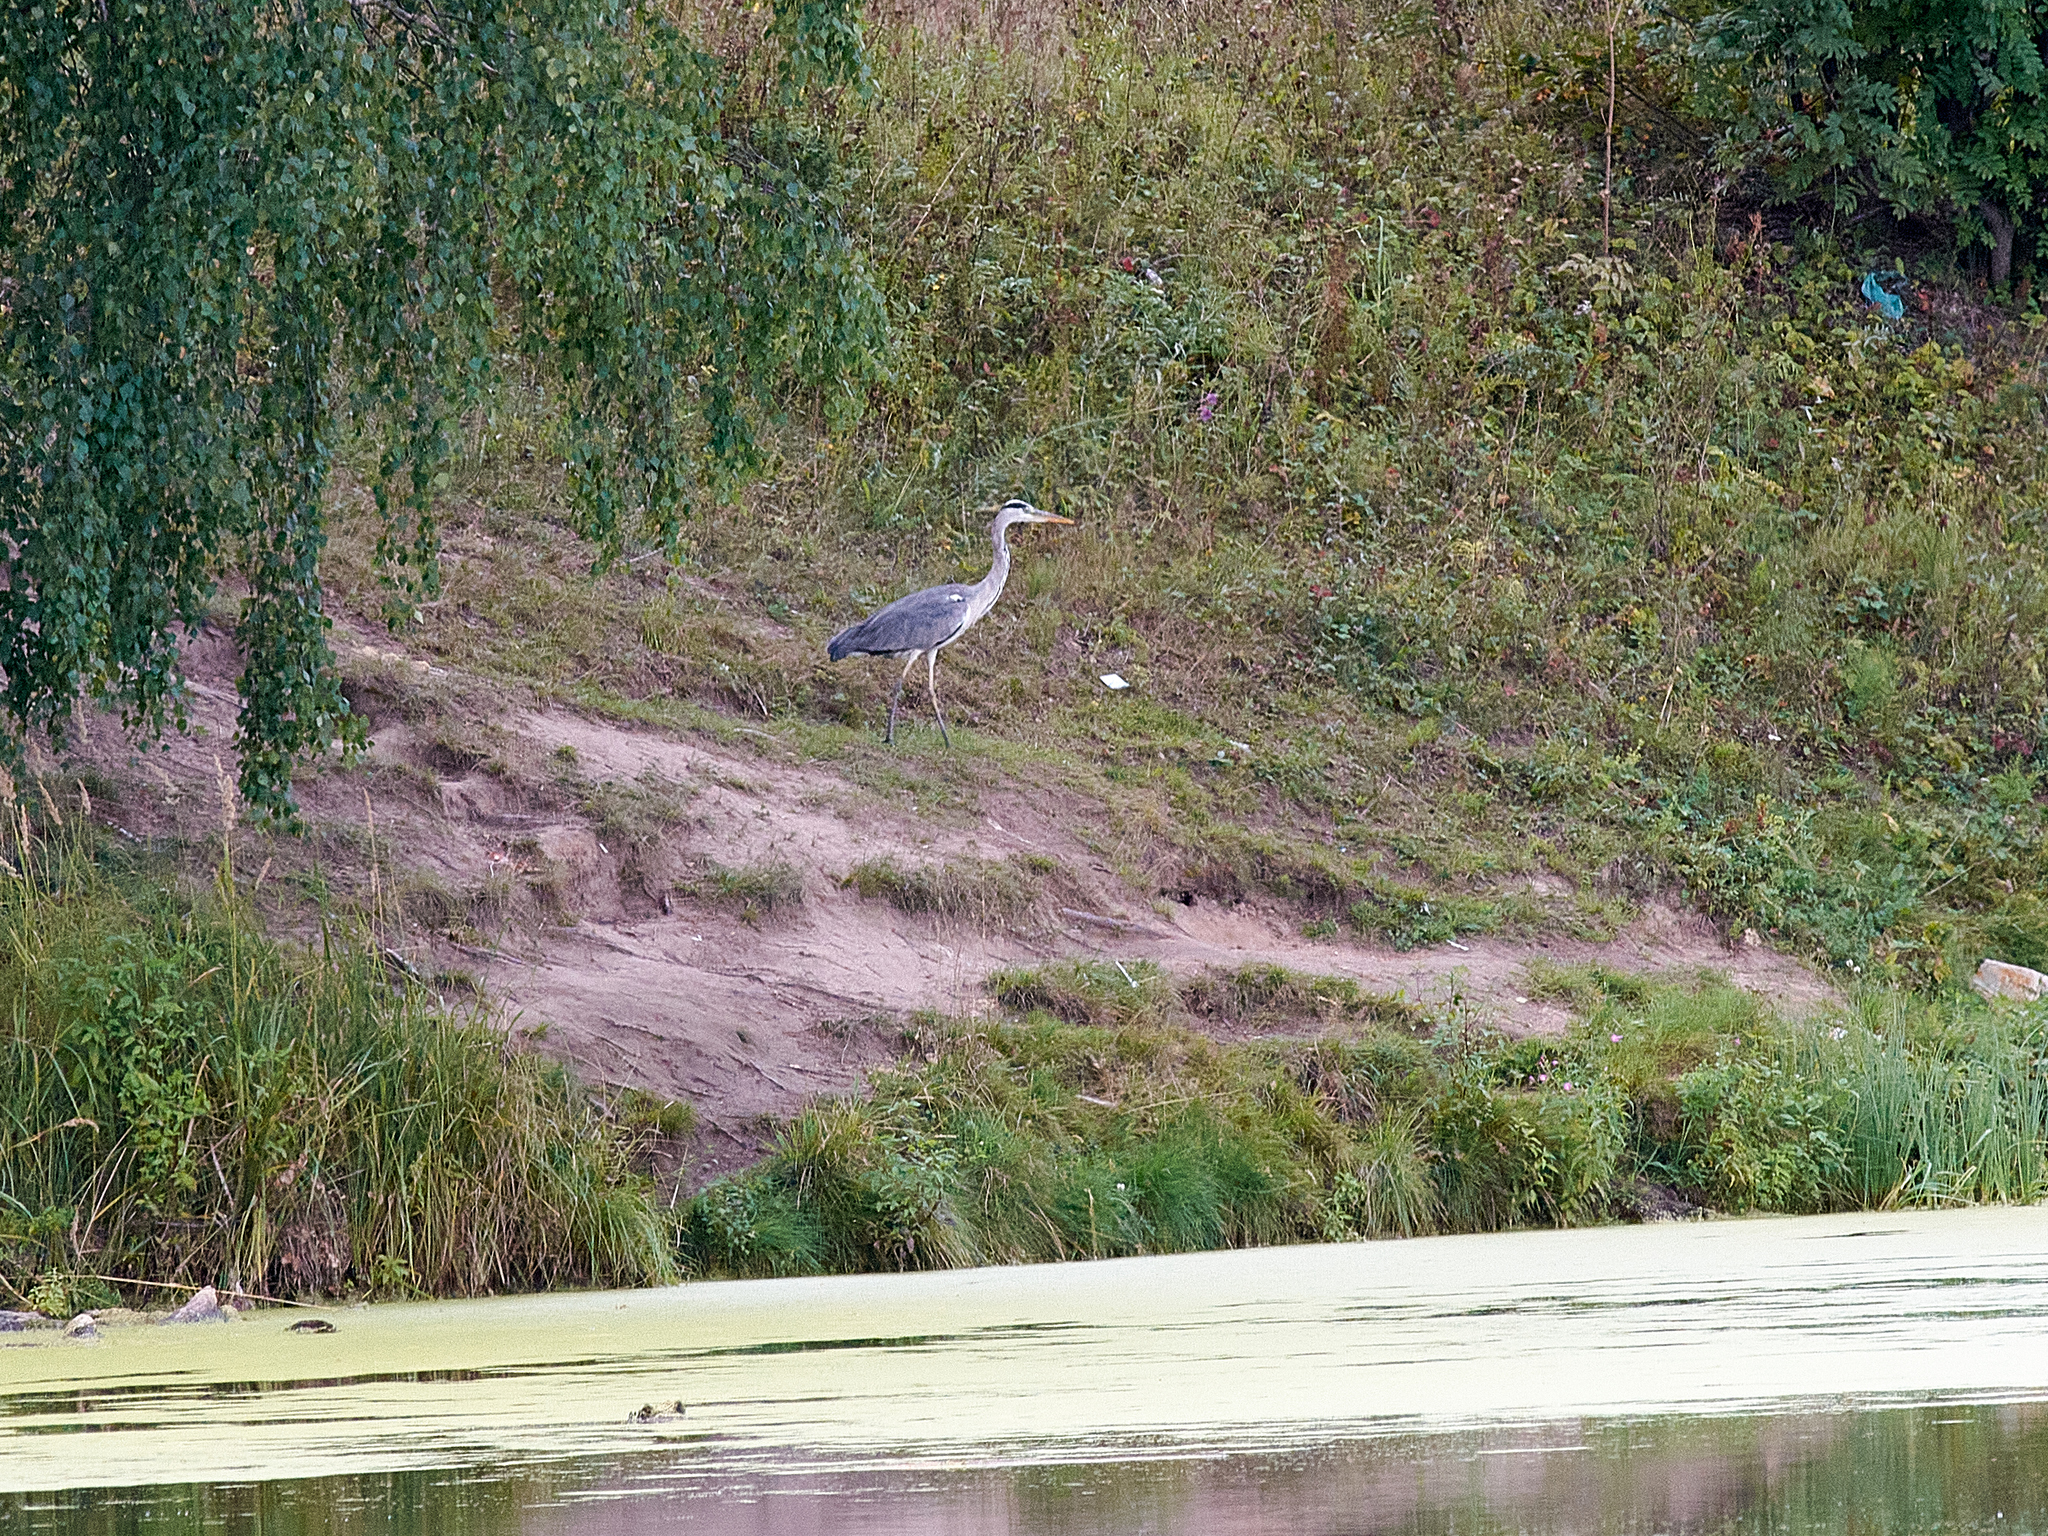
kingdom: Animalia
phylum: Chordata
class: Aves
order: Pelecaniformes
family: Ardeidae
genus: Ardea
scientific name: Ardea cinerea
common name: Grey heron
